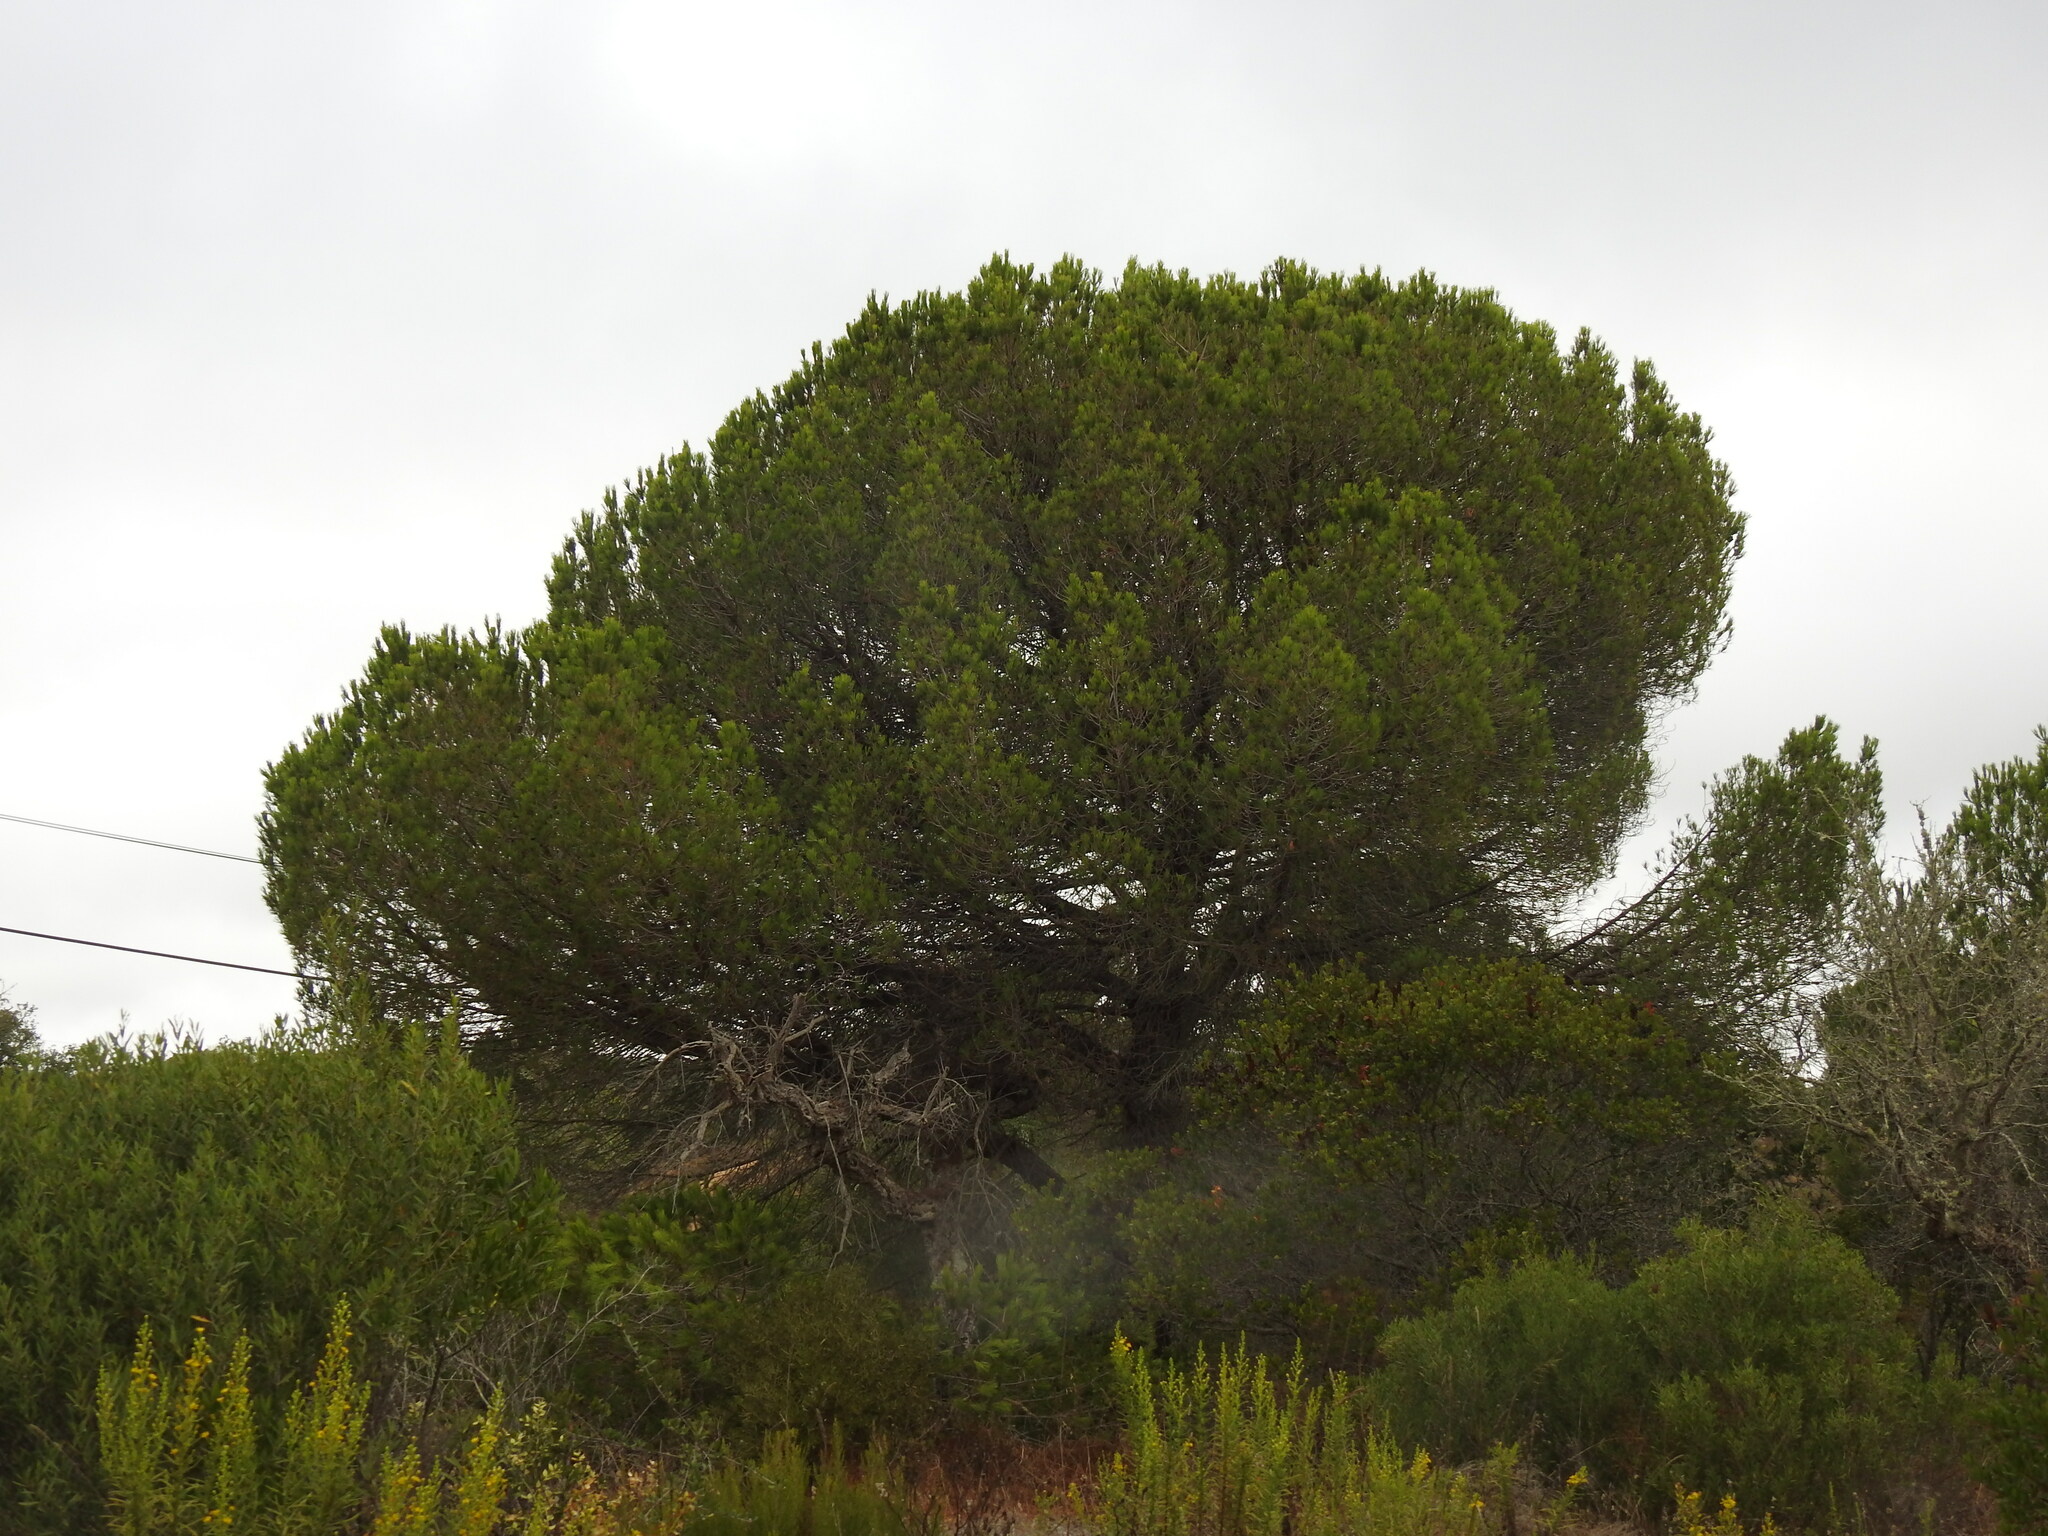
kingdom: Plantae
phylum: Tracheophyta
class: Pinopsida
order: Pinales
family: Pinaceae
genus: Pinus
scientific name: Pinus pinea
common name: Italian stone pine
